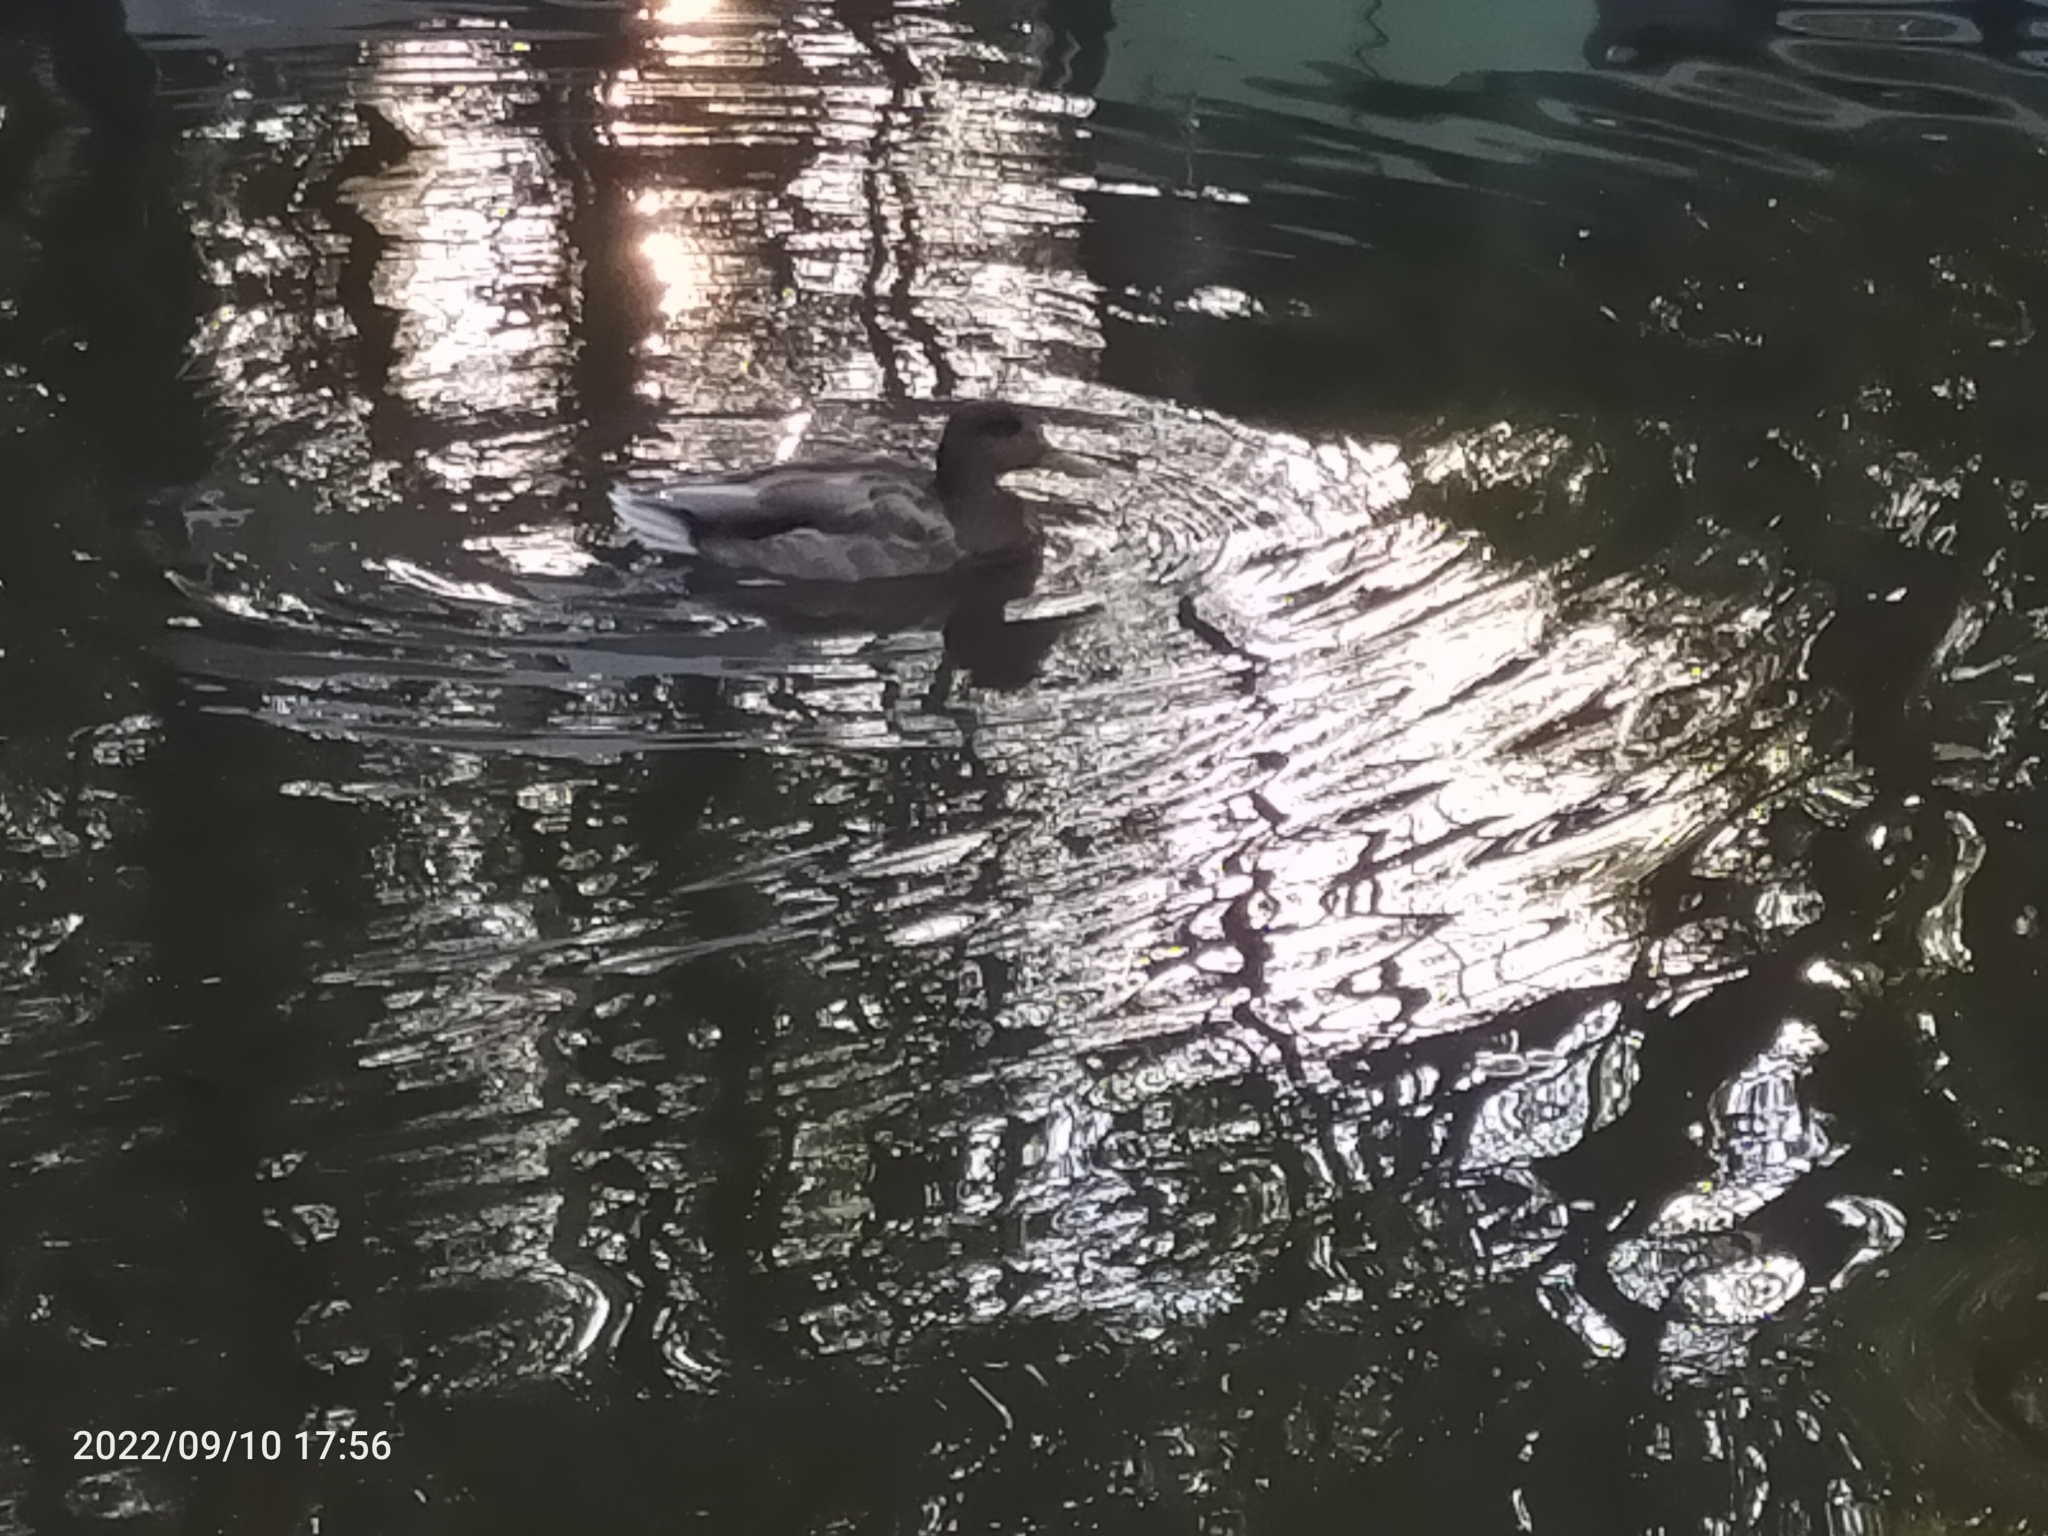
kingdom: Animalia
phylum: Chordata
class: Aves
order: Anseriformes
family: Anatidae
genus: Anas
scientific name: Anas platyrhynchos
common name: Mallard
